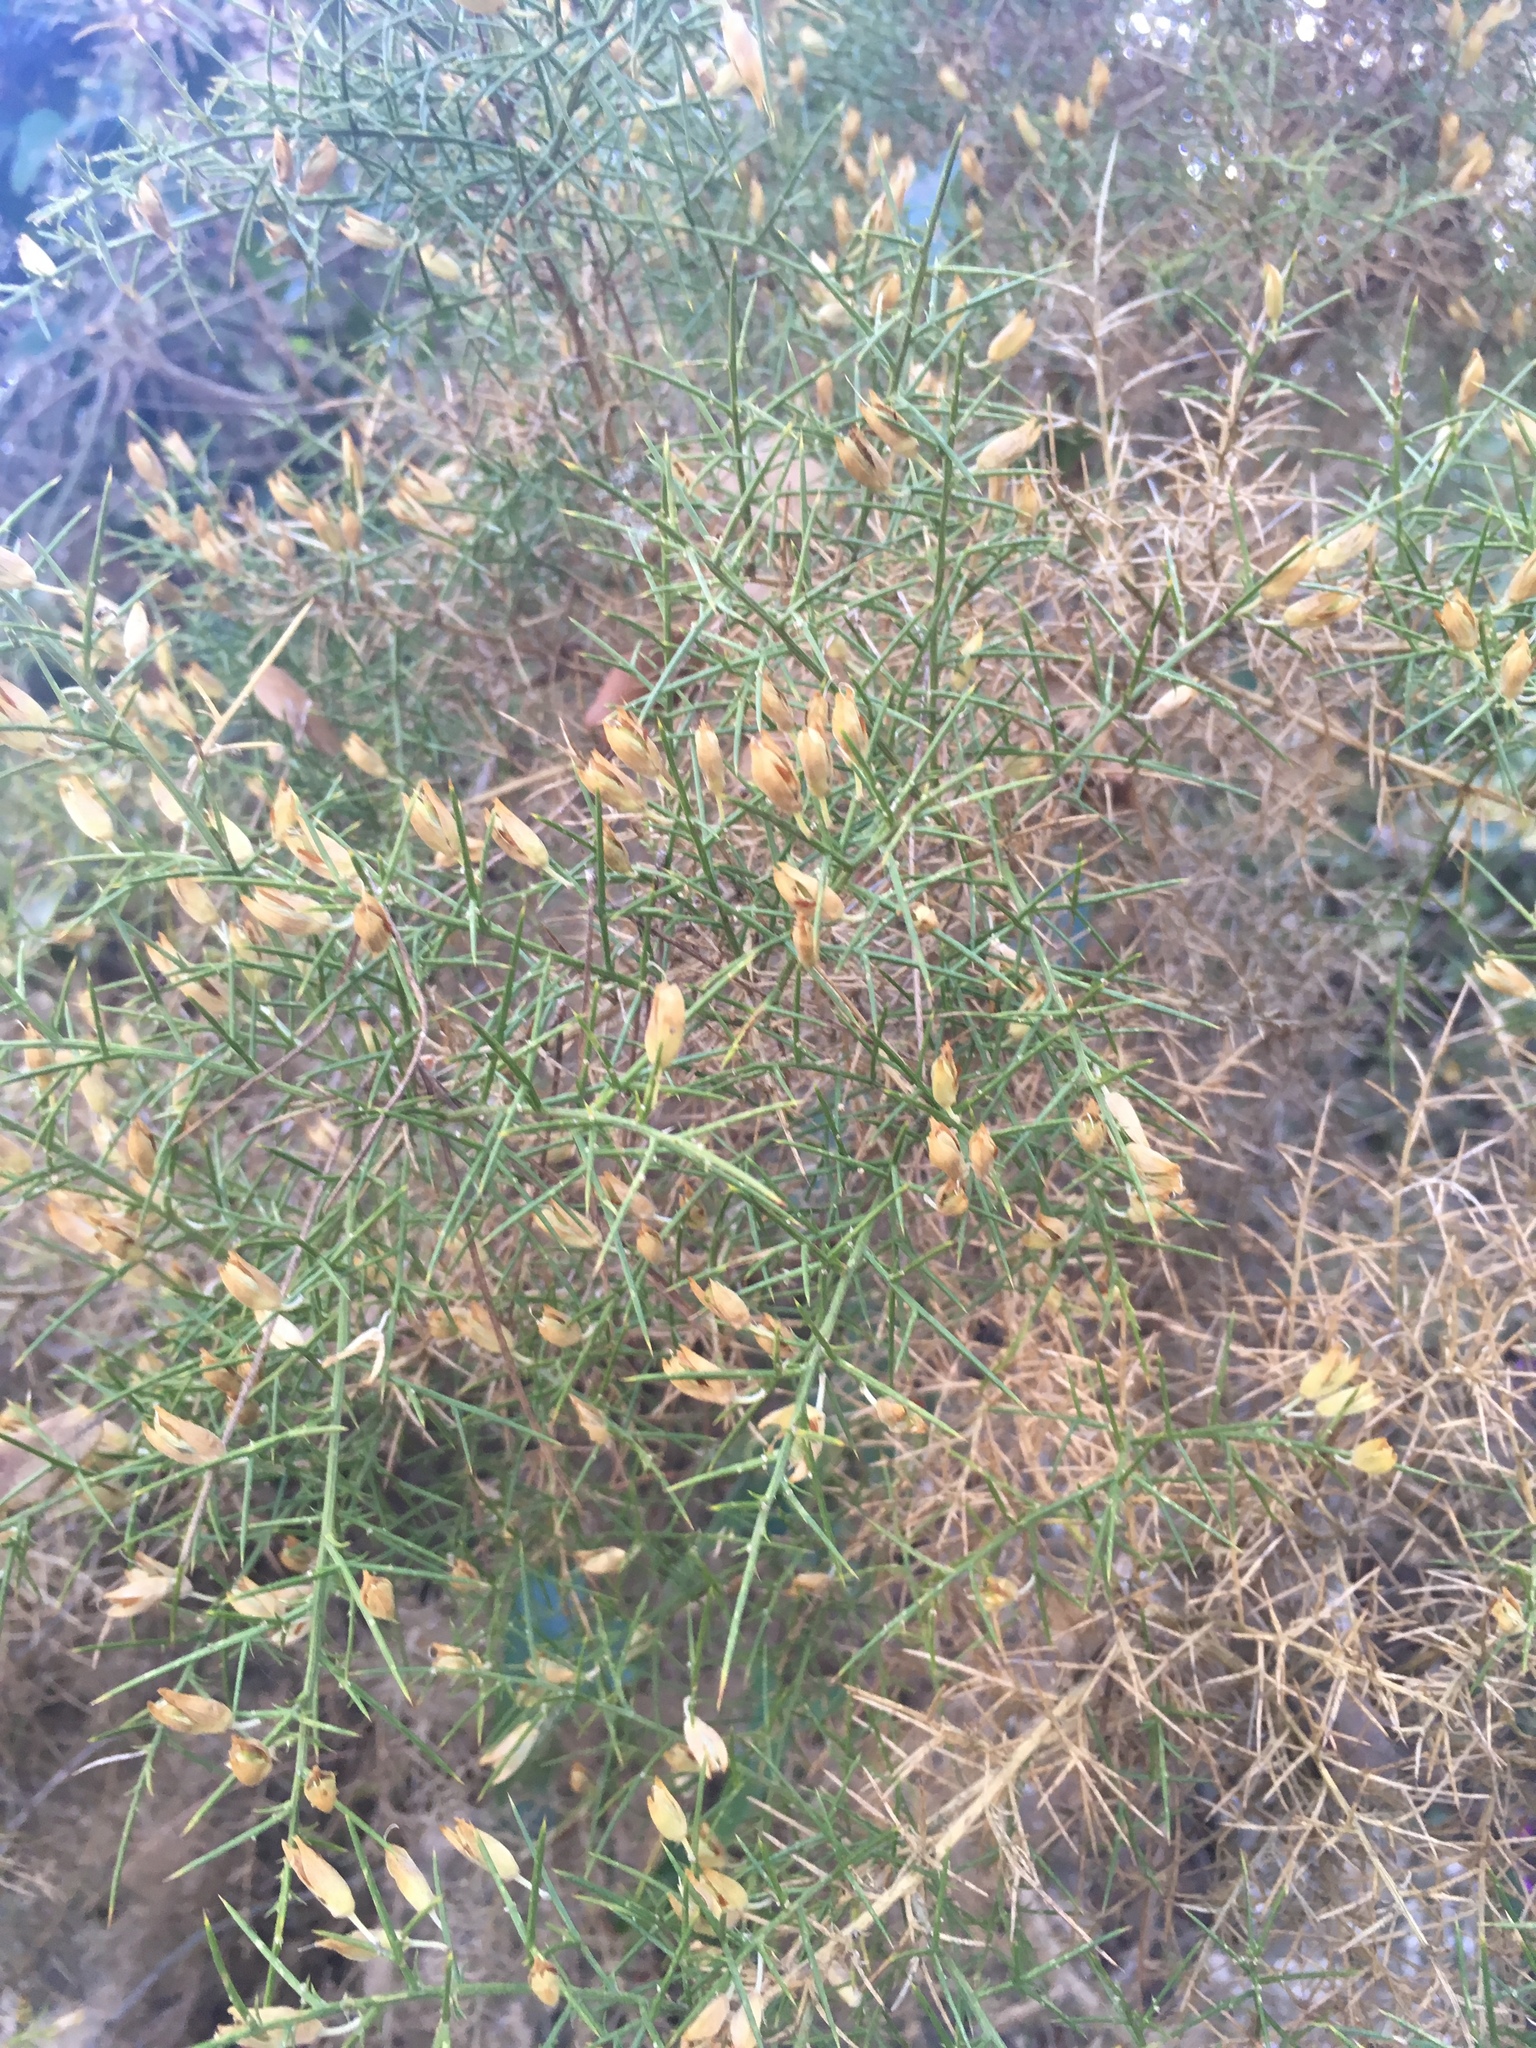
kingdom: Plantae
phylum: Tracheophyta
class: Magnoliopsida
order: Fabales
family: Fabaceae
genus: Ulex
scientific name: Ulex parviflorus
